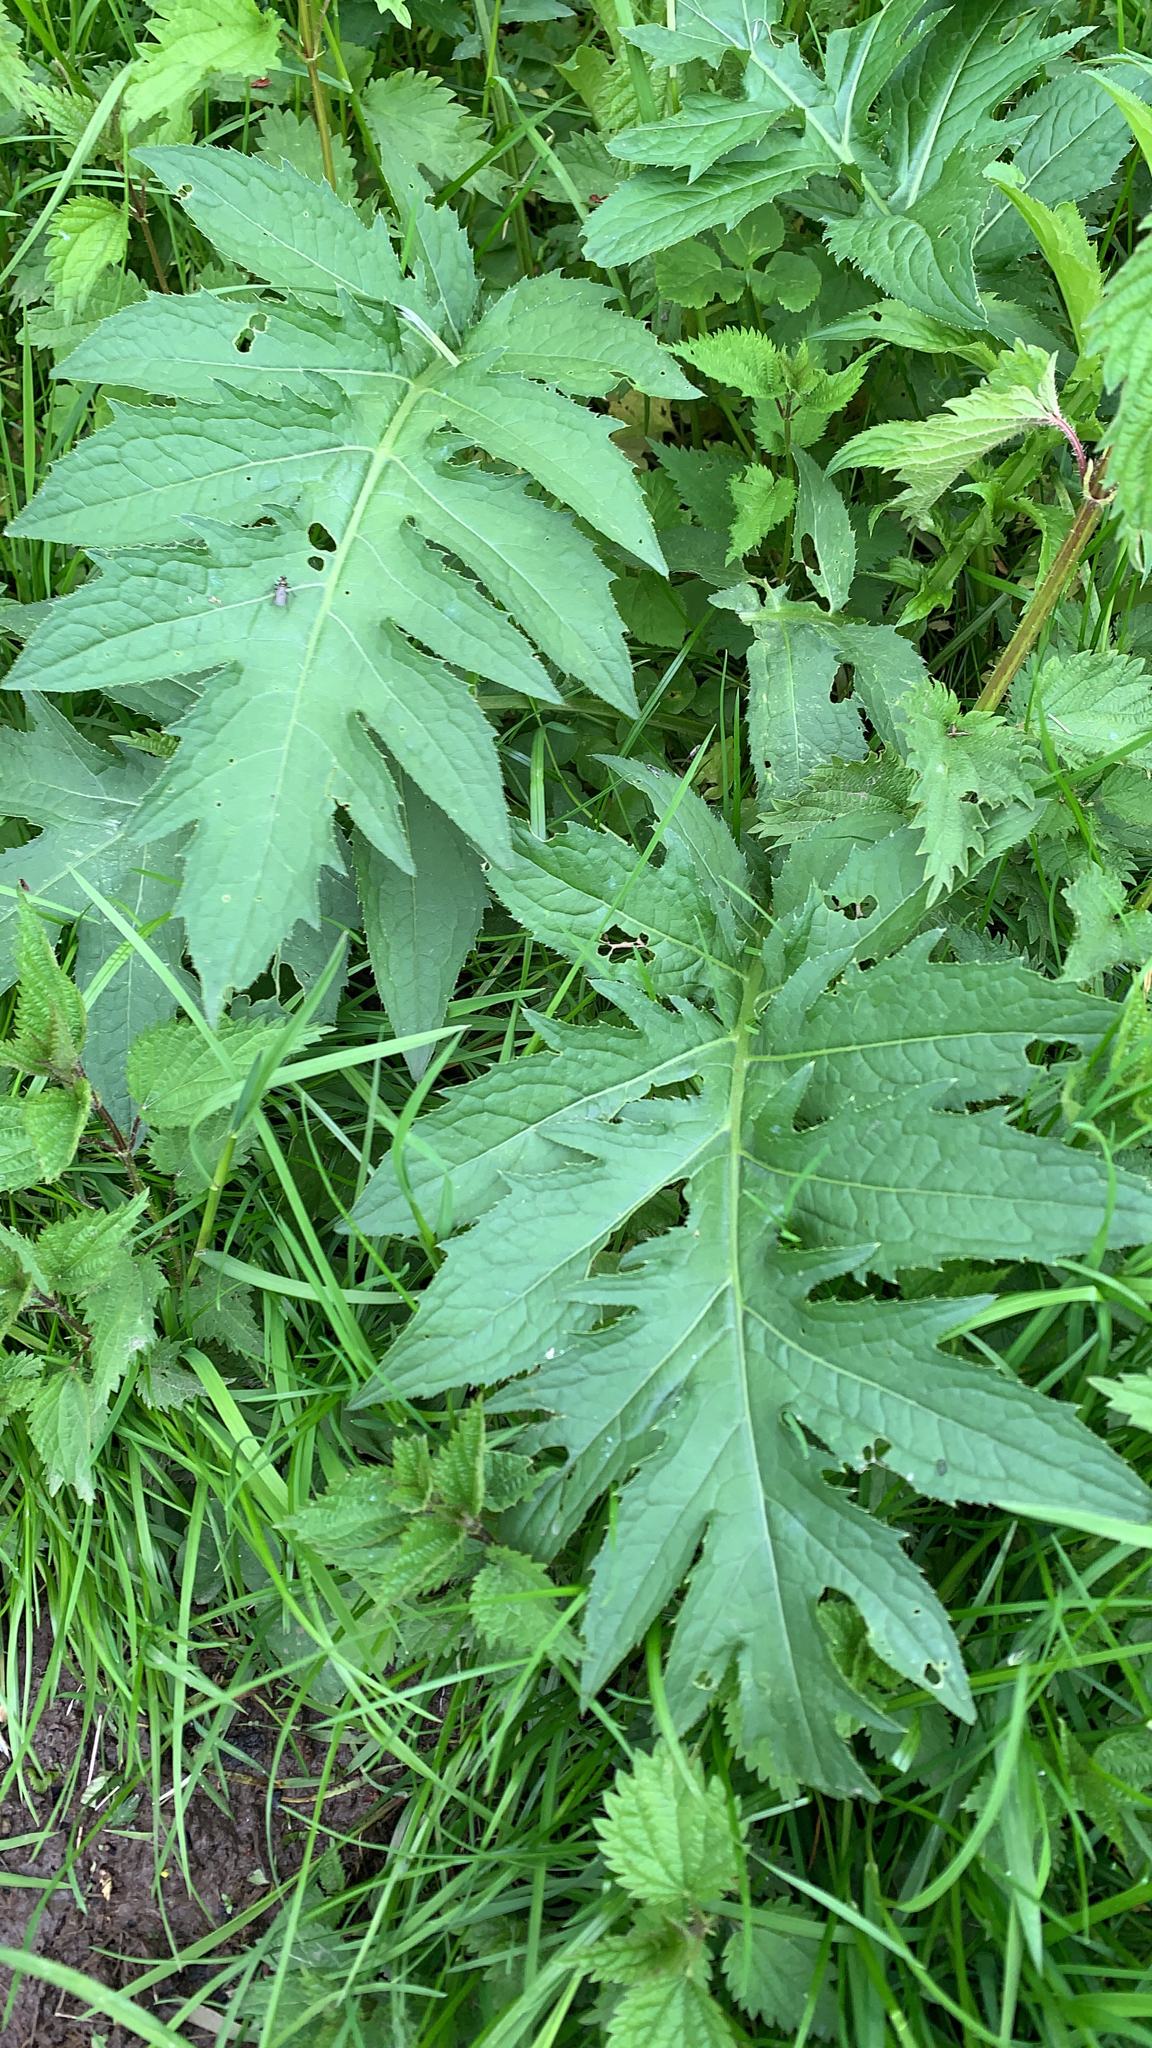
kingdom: Plantae
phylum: Tracheophyta
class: Magnoliopsida
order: Asterales
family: Asteraceae
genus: Cirsium
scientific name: Cirsium oleraceum
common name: Cabbage thistle
